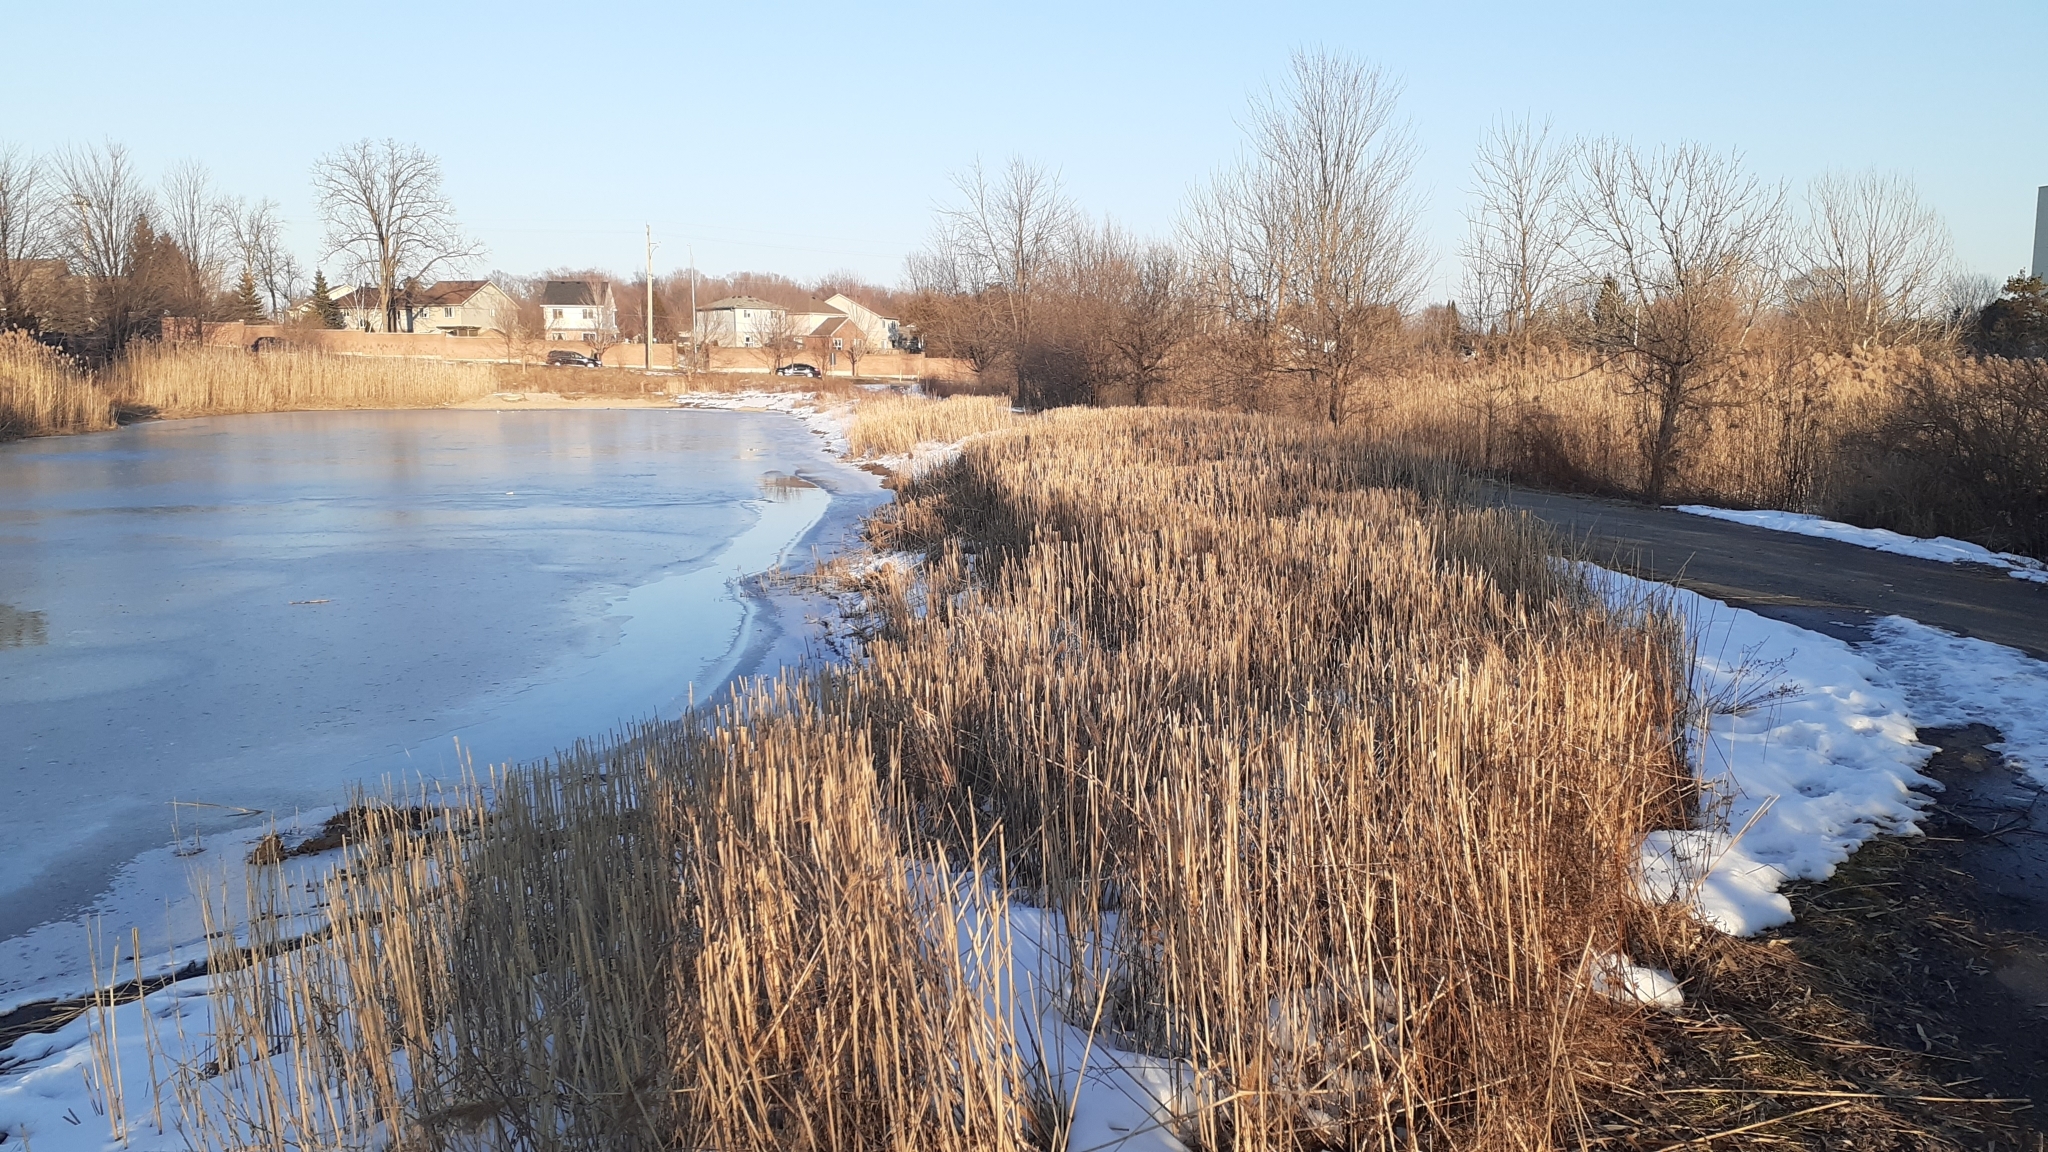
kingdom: Plantae
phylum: Tracheophyta
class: Liliopsida
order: Poales
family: Poaceae
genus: Phragmites
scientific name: Phragmites australis
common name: Common reed
